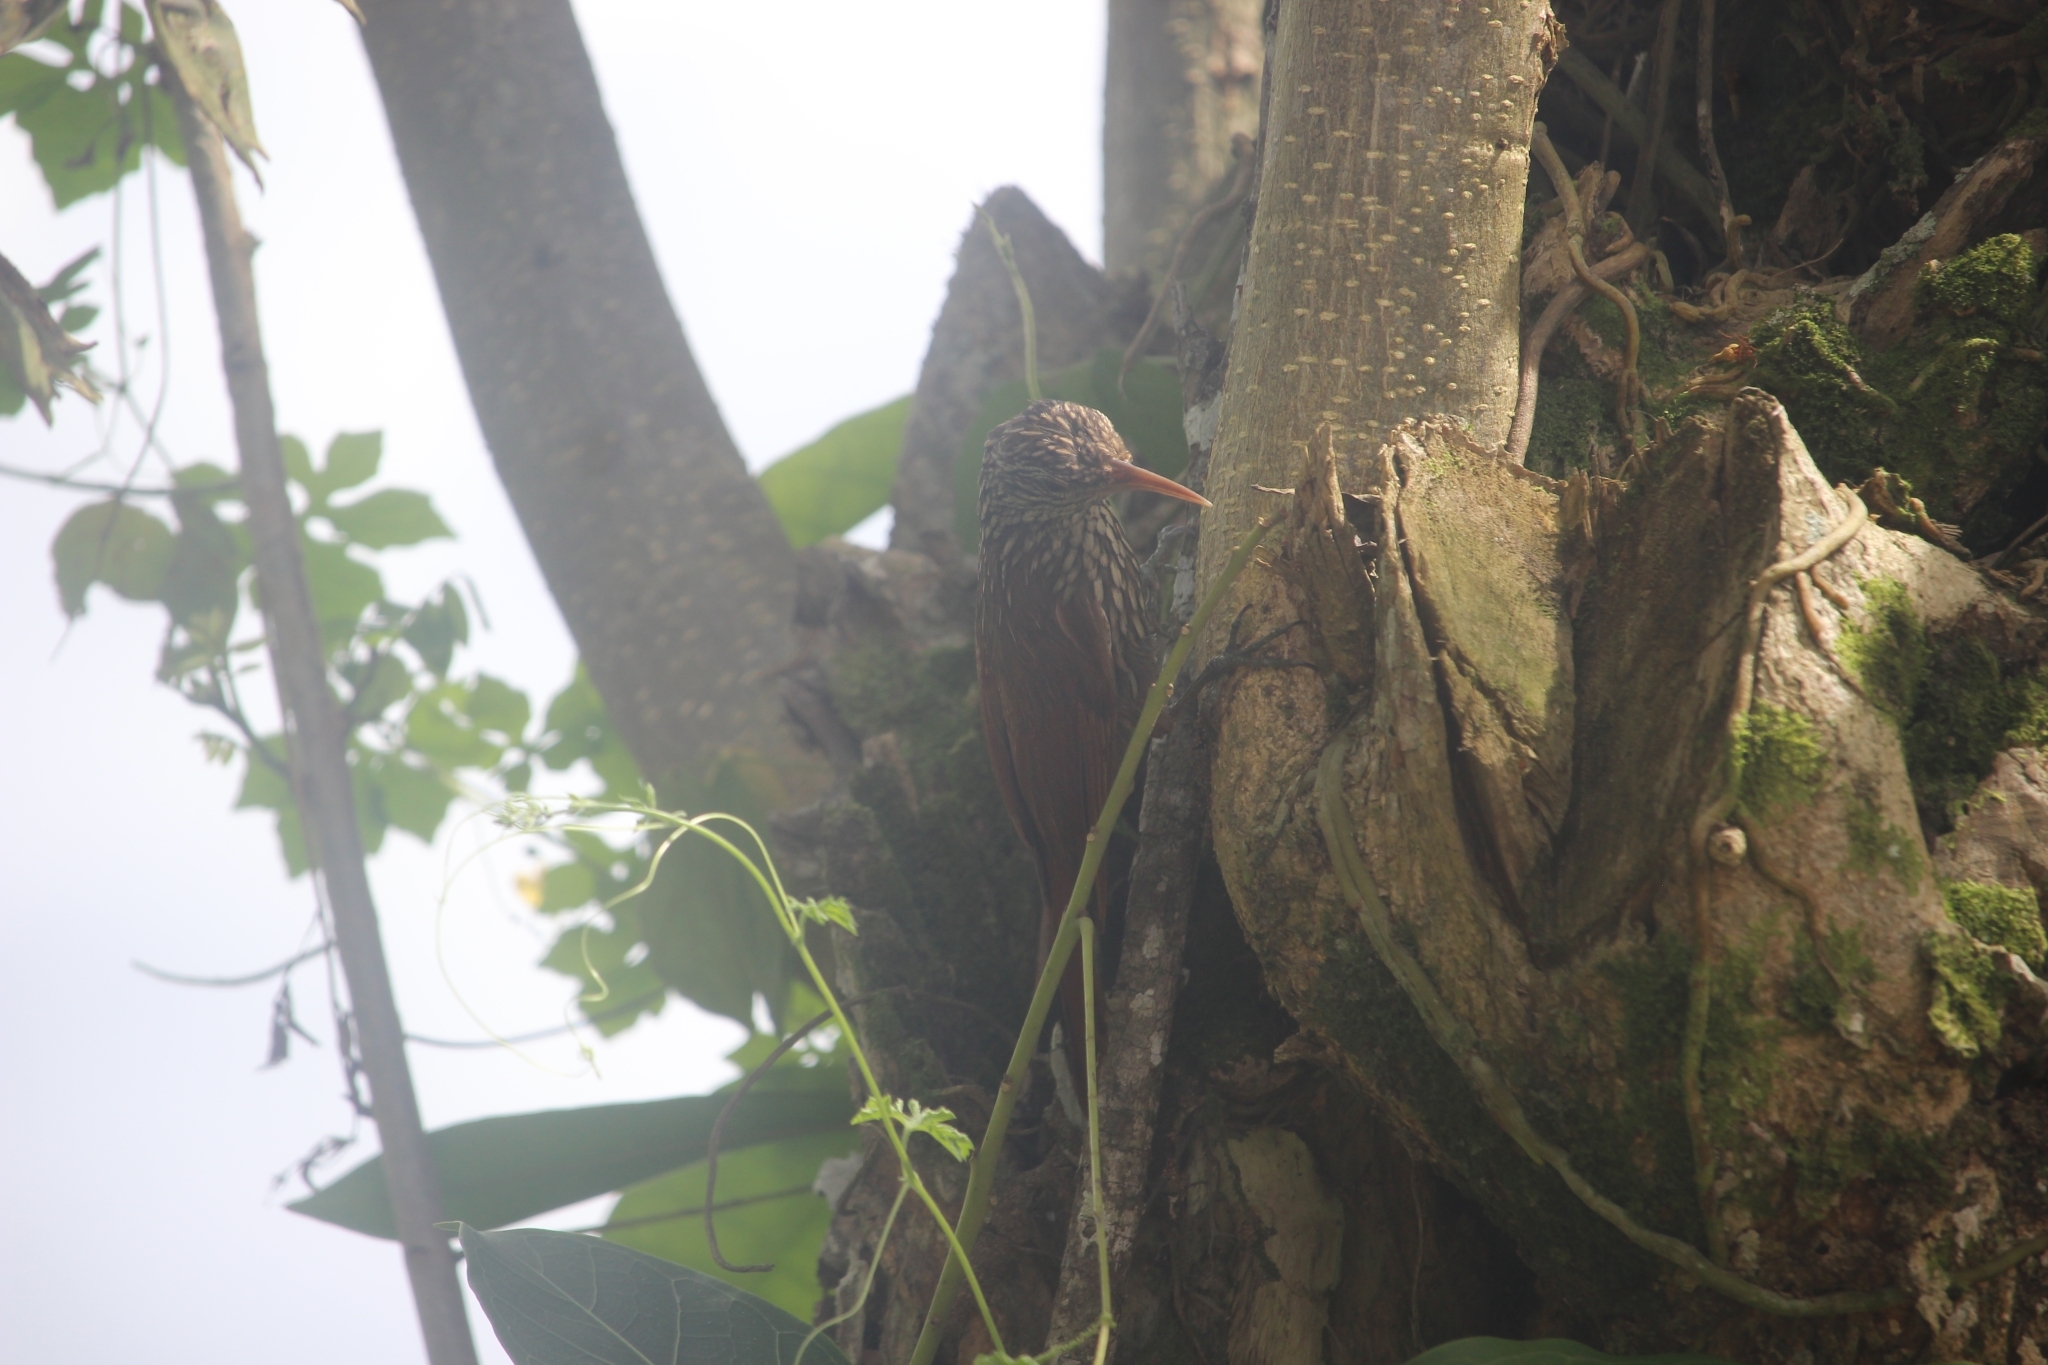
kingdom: Animalia
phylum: Chordata
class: Aves
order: Passeriformes
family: Furnariidae
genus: Lepidocolaptes
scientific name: Lepidocolaptes souleyetii
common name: Streak-headed woodcreeper
